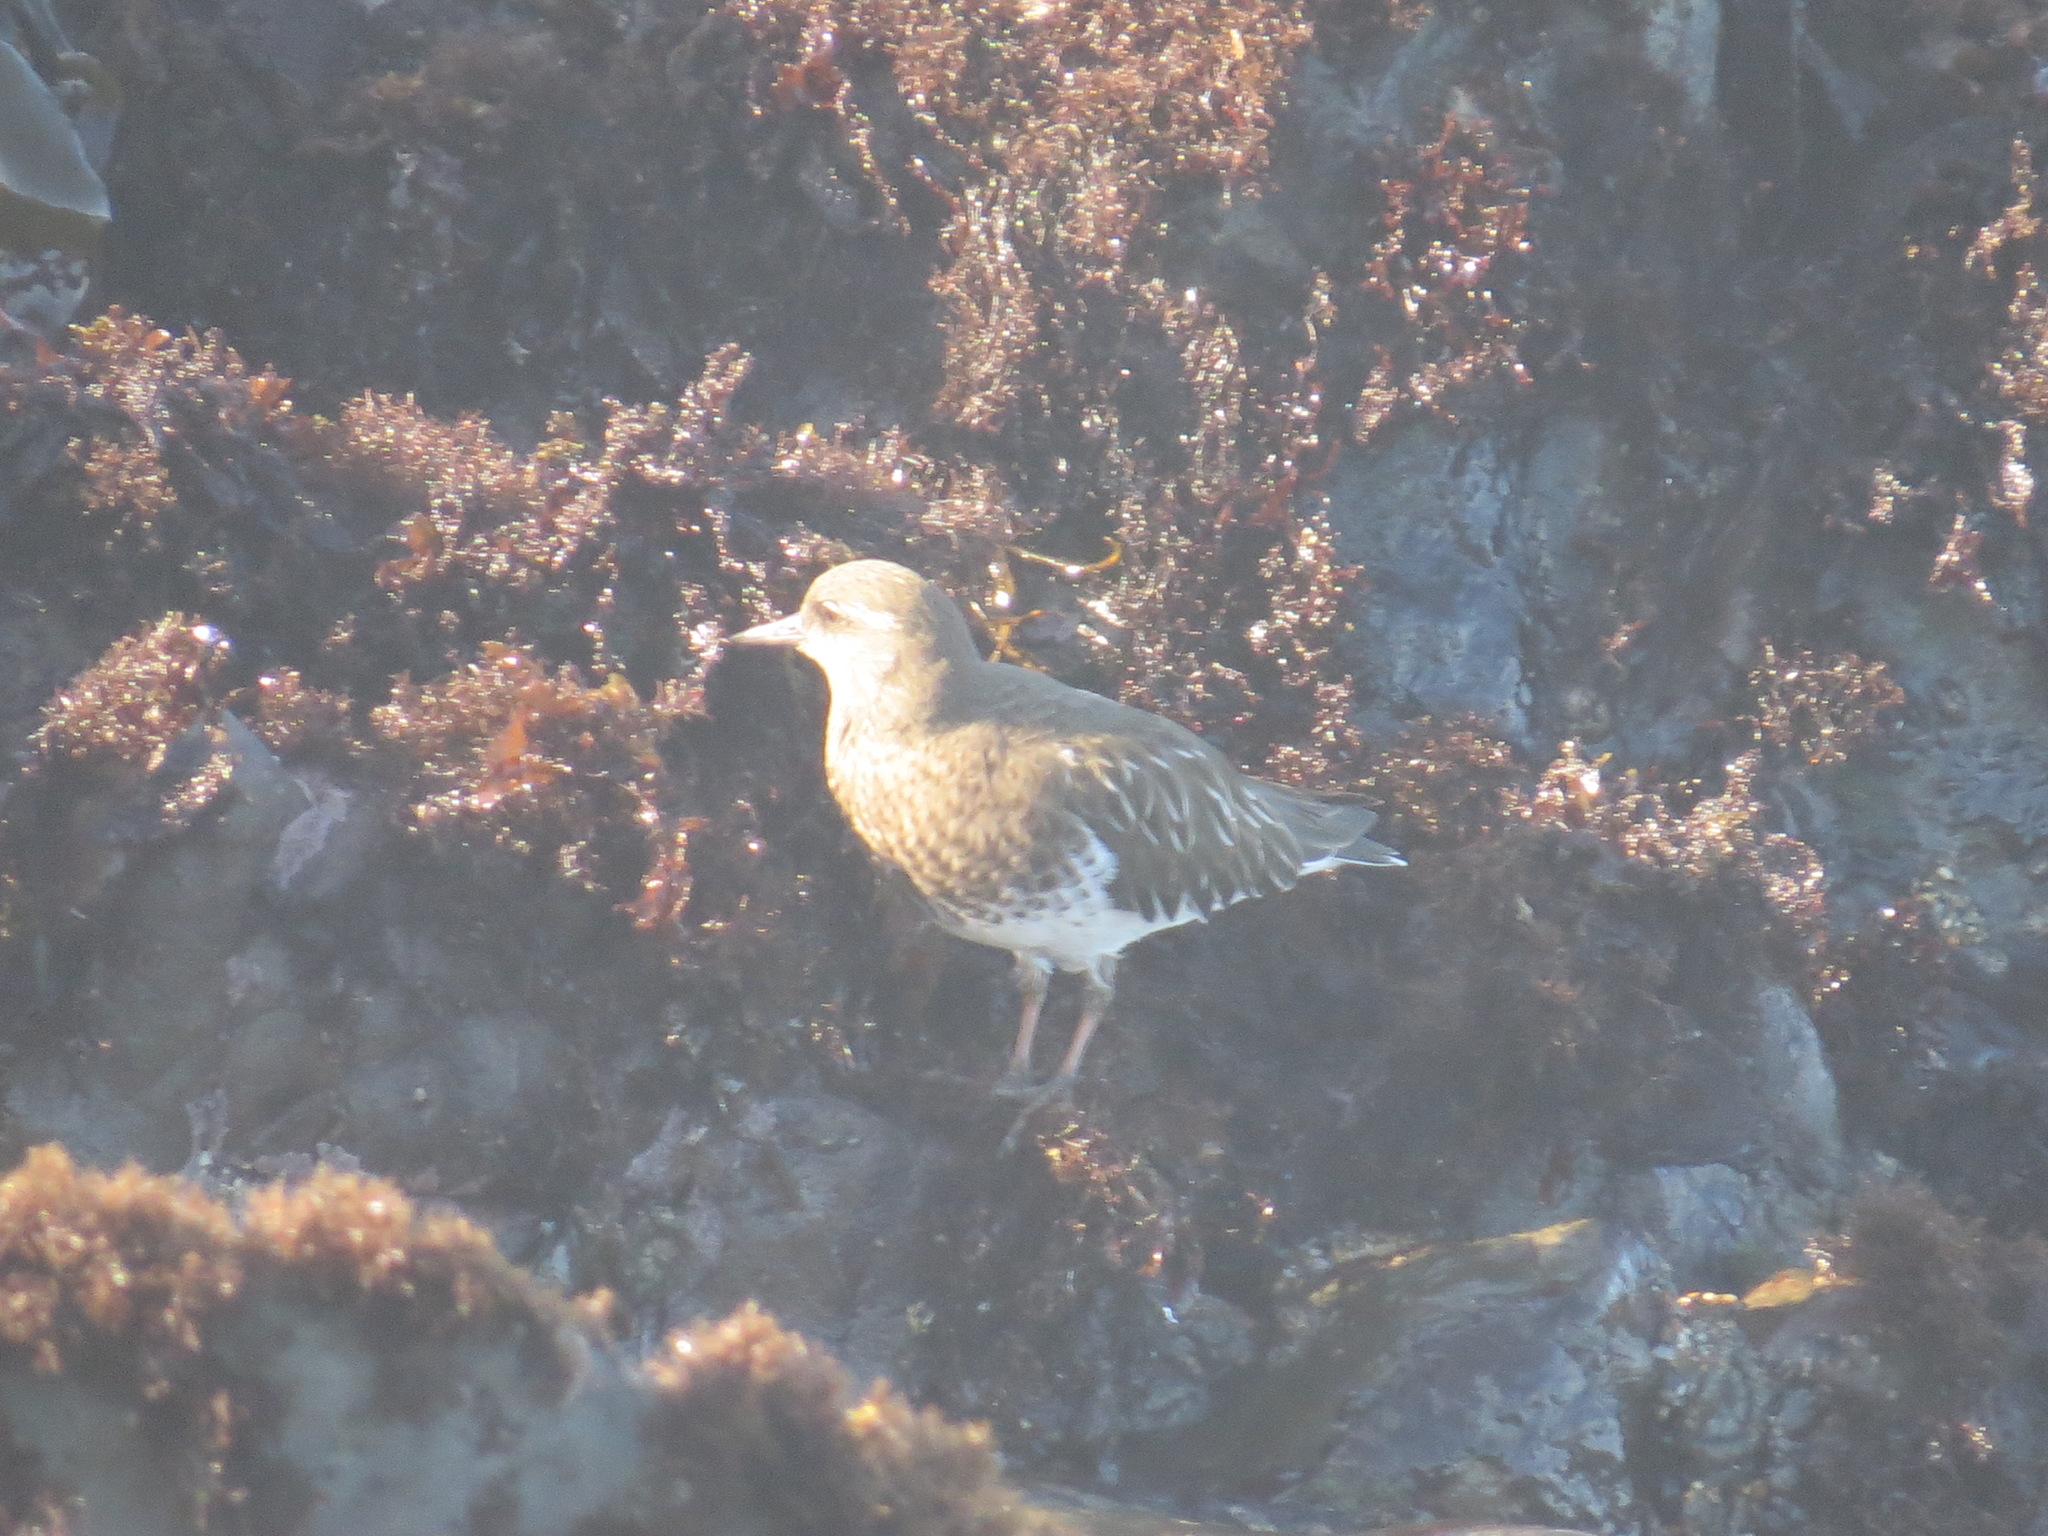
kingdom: Animalia
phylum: Chordata
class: Aves
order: Charadriiformes
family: Scolopacidae
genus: Arenaria
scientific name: Arenaria melanocephala
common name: Black turnstone
